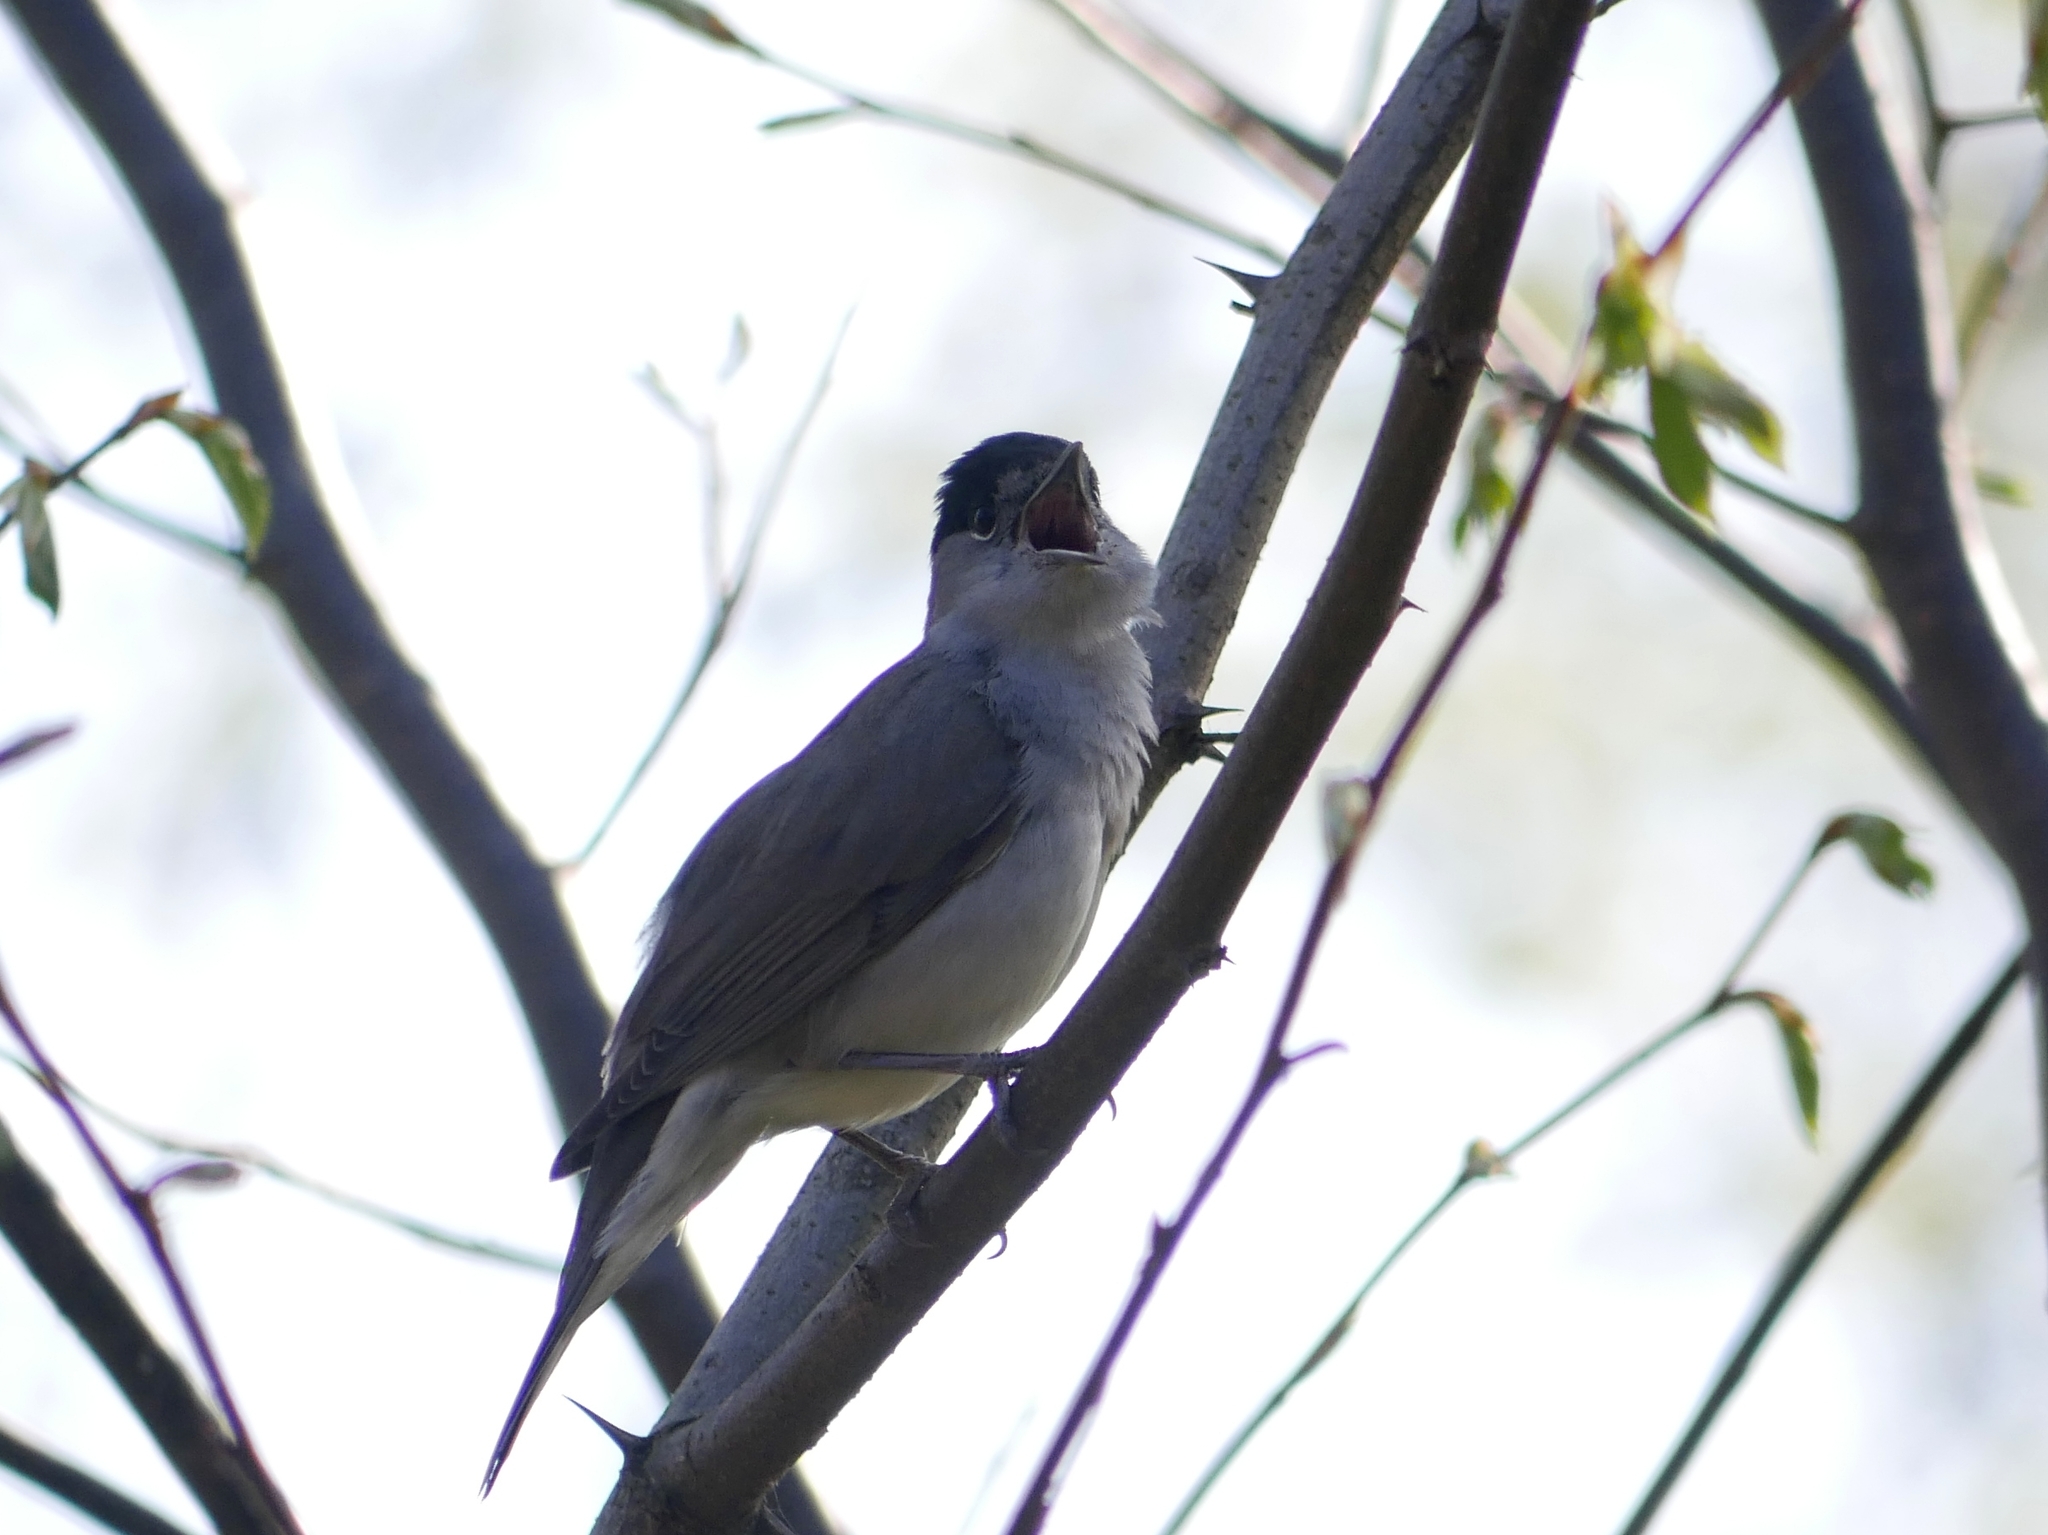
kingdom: Animalia
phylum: Chordata
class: Aves
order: Passeriformes
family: Sylviidae
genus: Sylvia
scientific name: Sylvia atricapilla
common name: Eurasian blackcap
